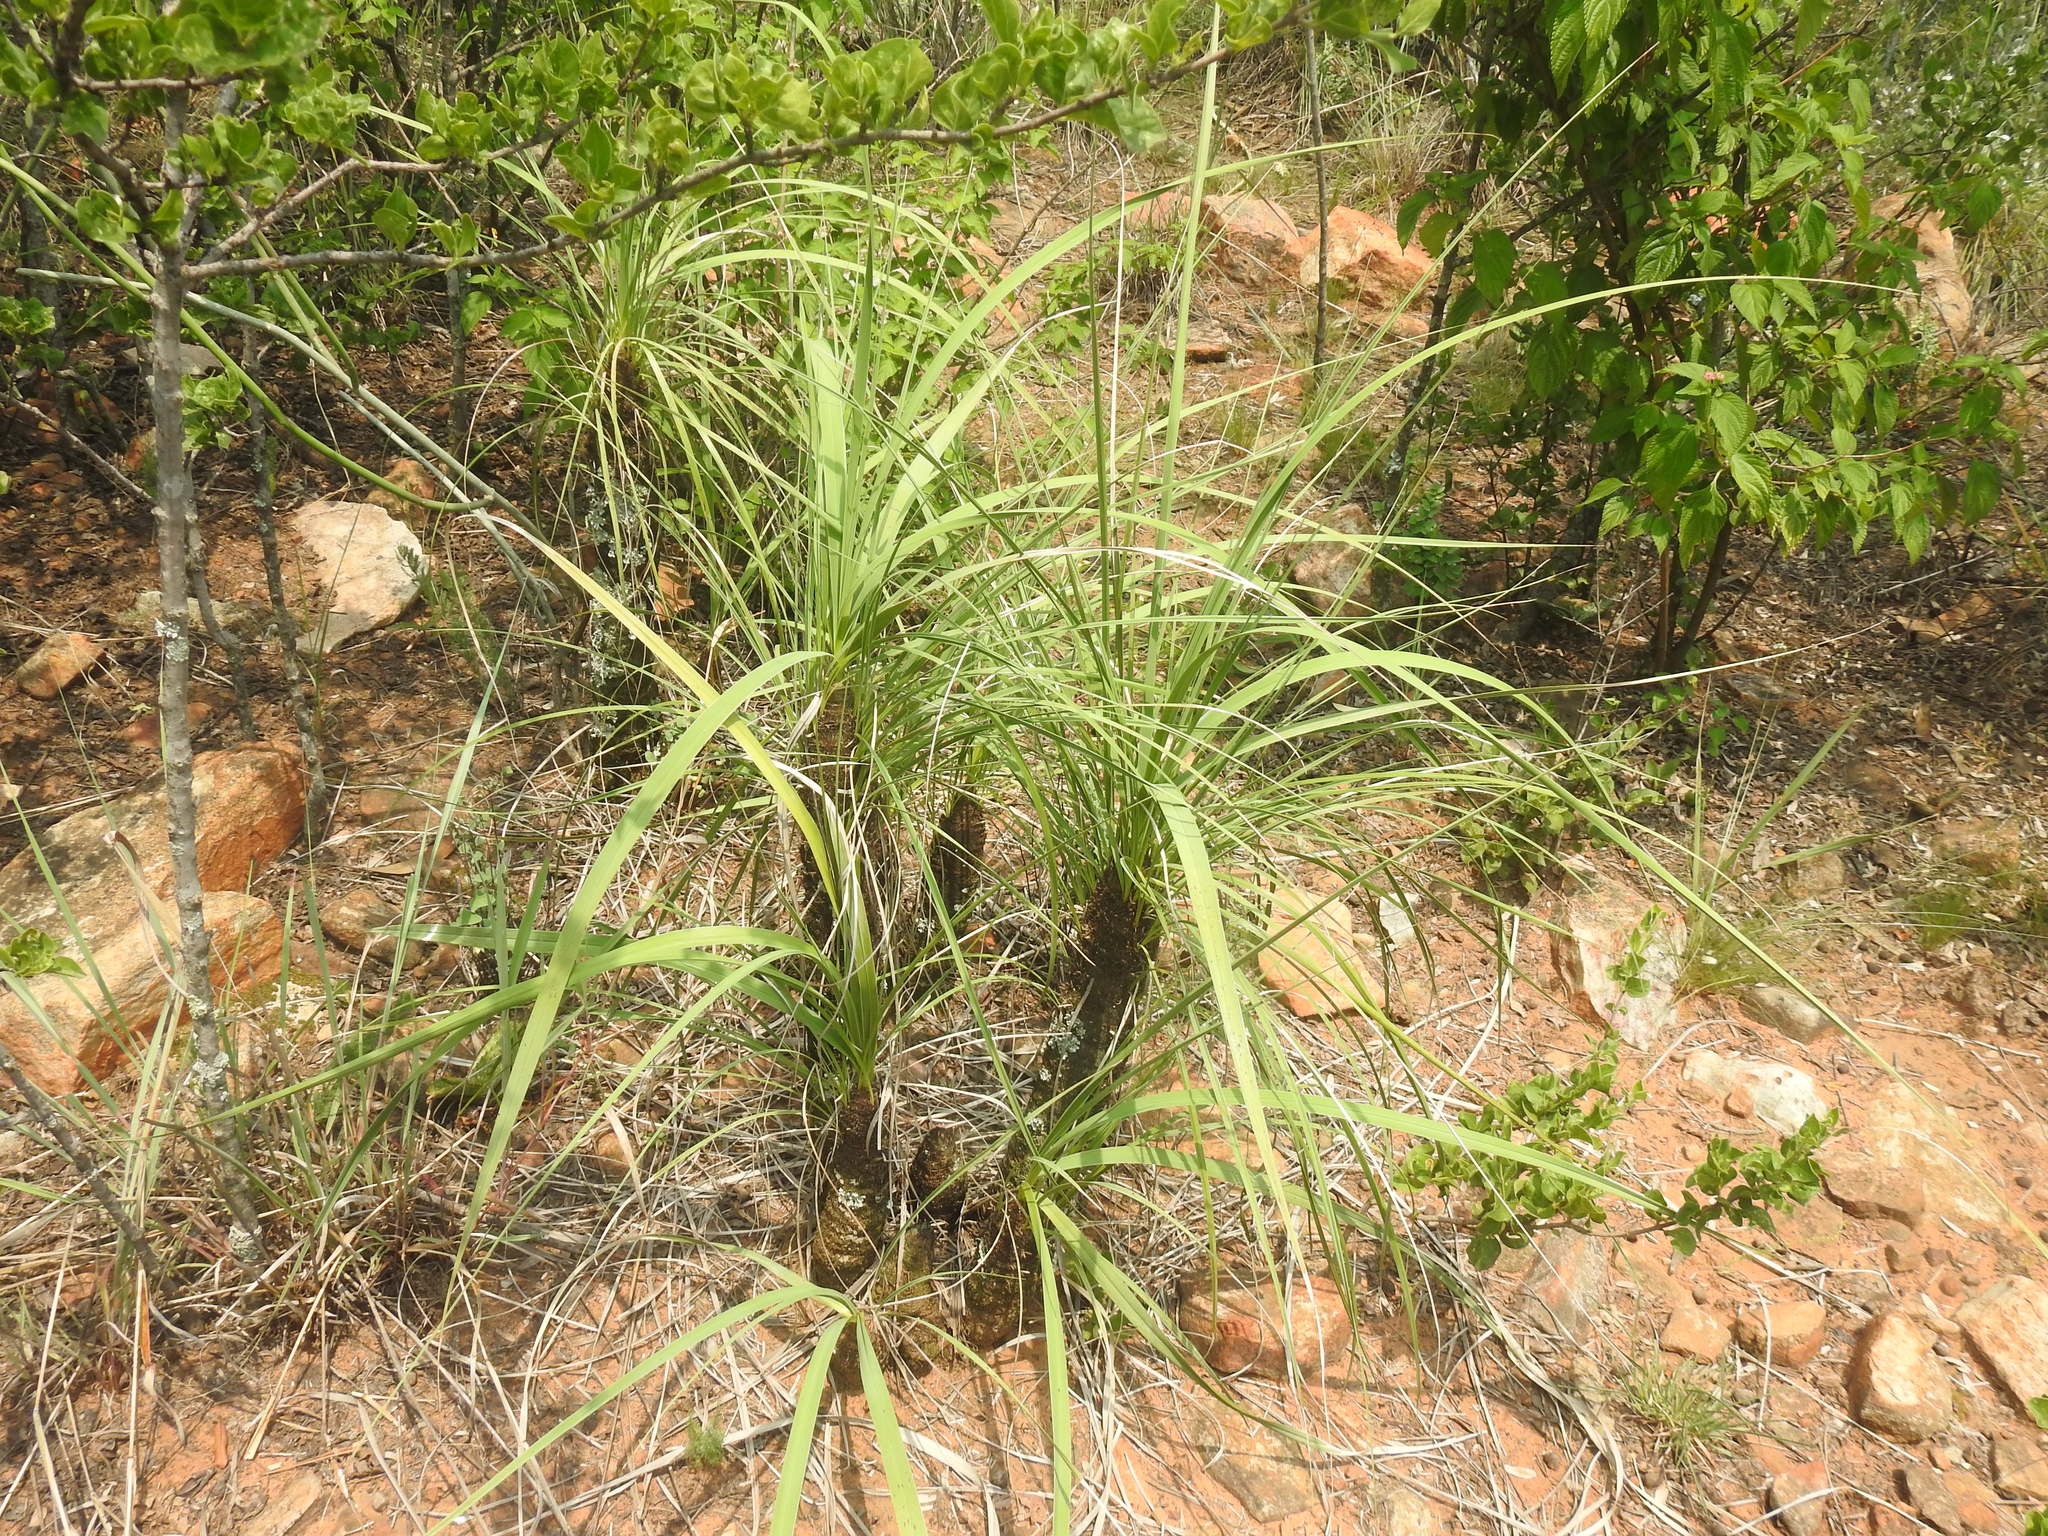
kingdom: Plantae
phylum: Tracheophyta
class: Liliopsida
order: Pandanales
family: Velloziaceae
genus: Xerophyta
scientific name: Xerophyta retinervis
